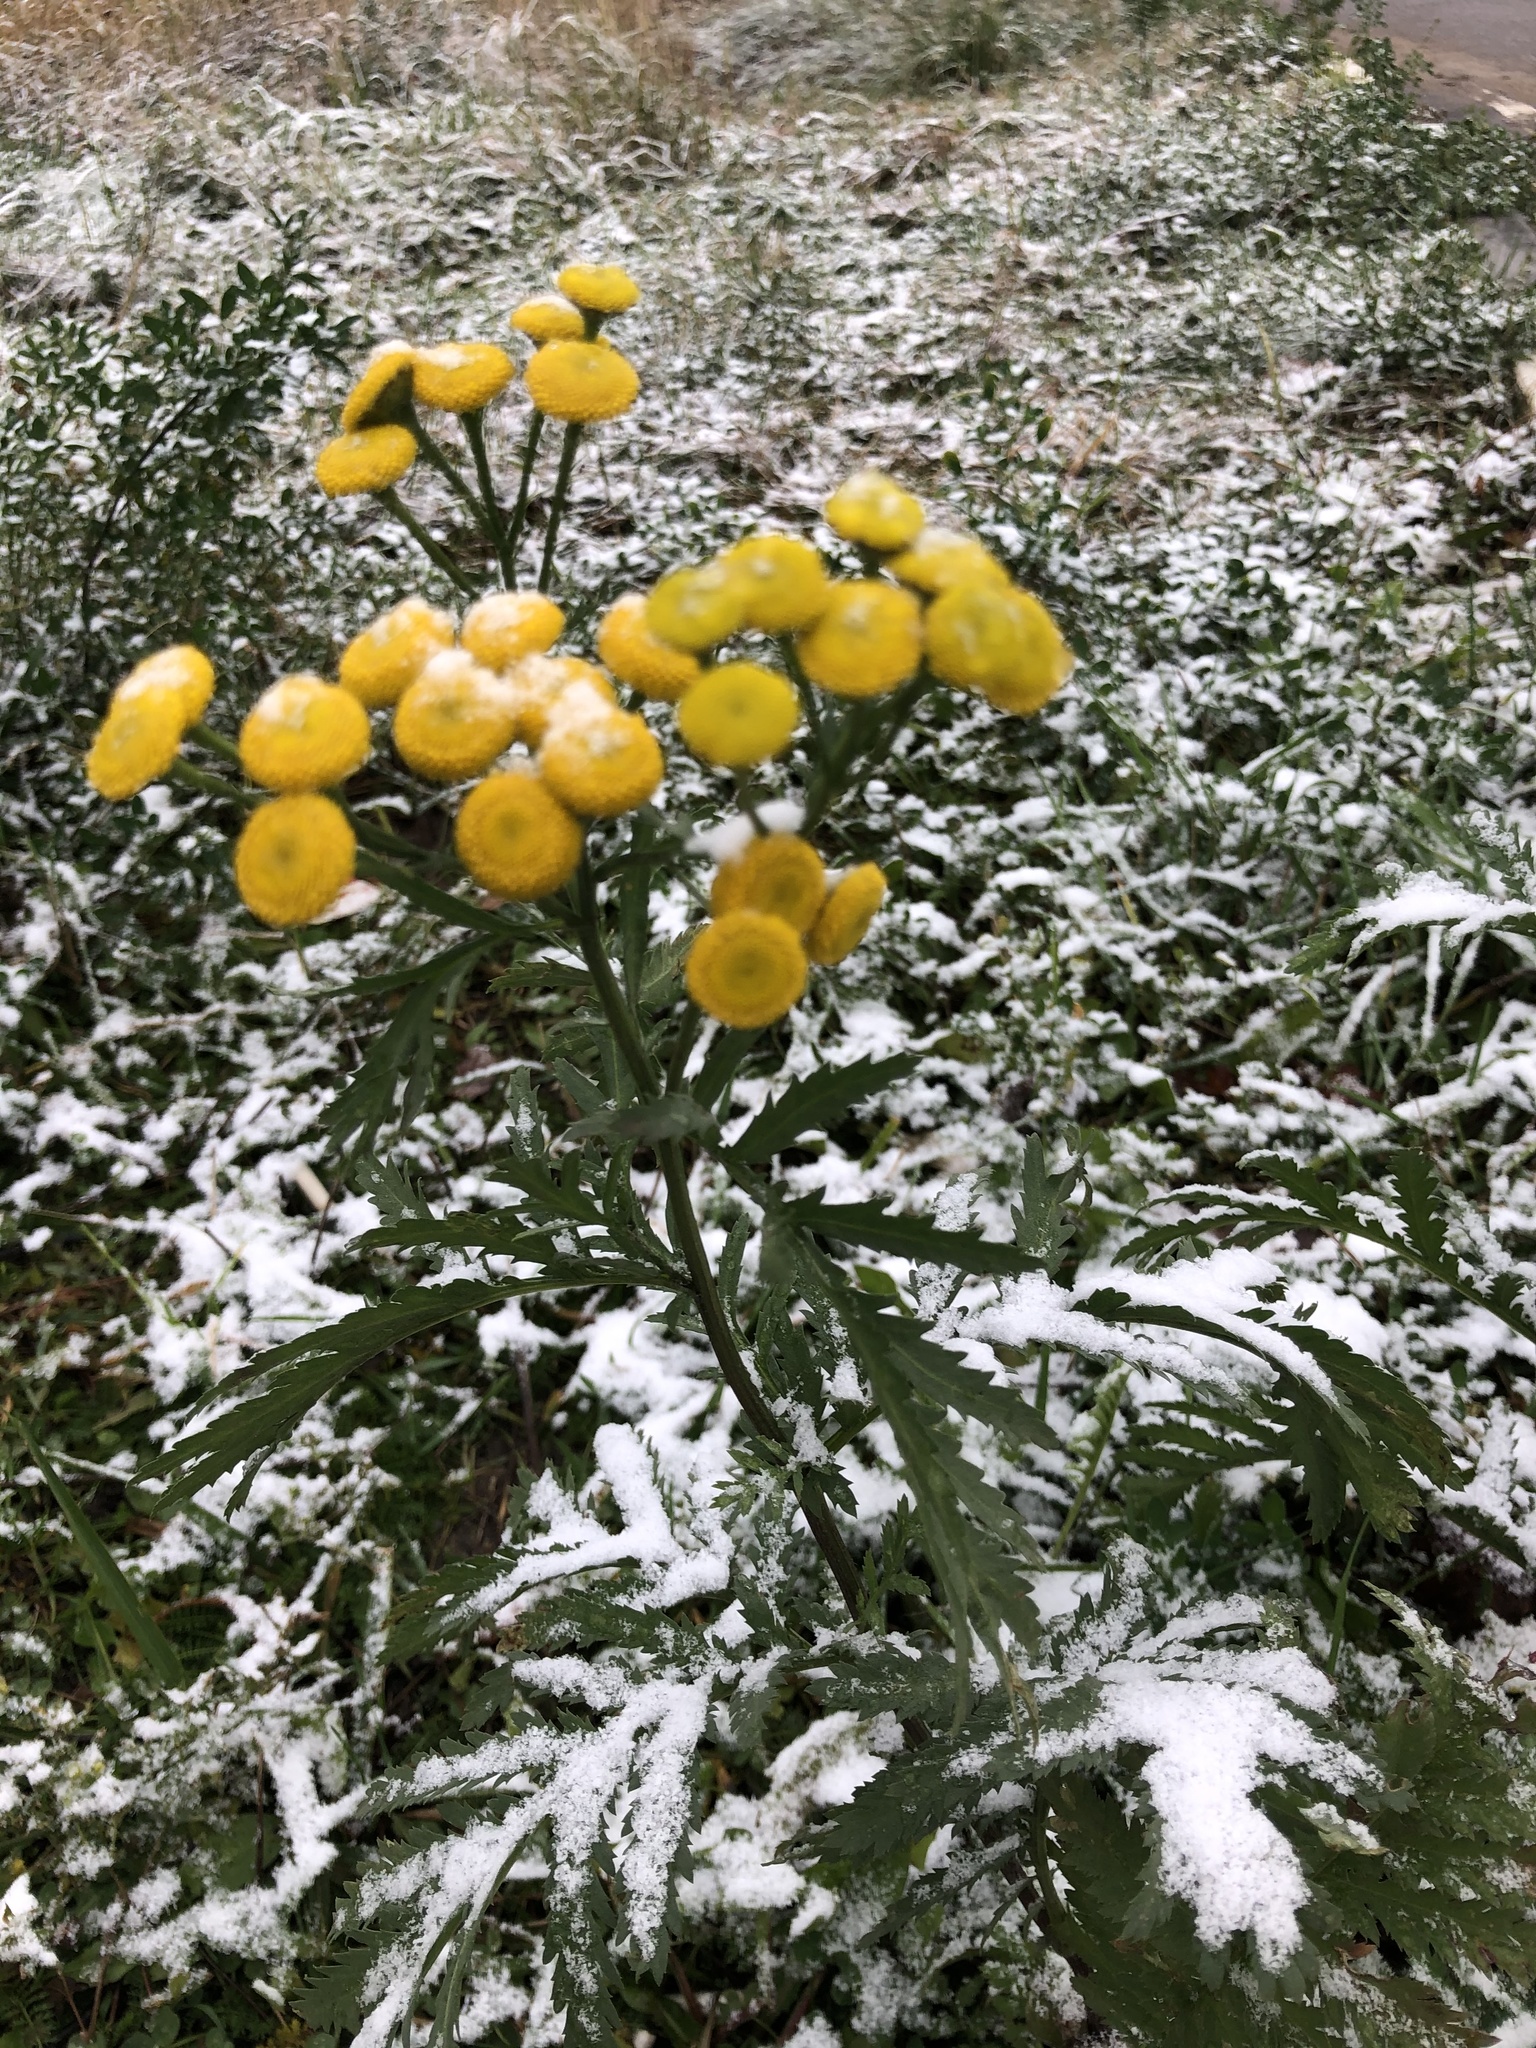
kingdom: Plantae
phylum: Tracheophyta
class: Magnoliopsida
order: Asterales
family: Asteraceae
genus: Tanacetum
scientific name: Tanacetum vulgare
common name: Common tansy
